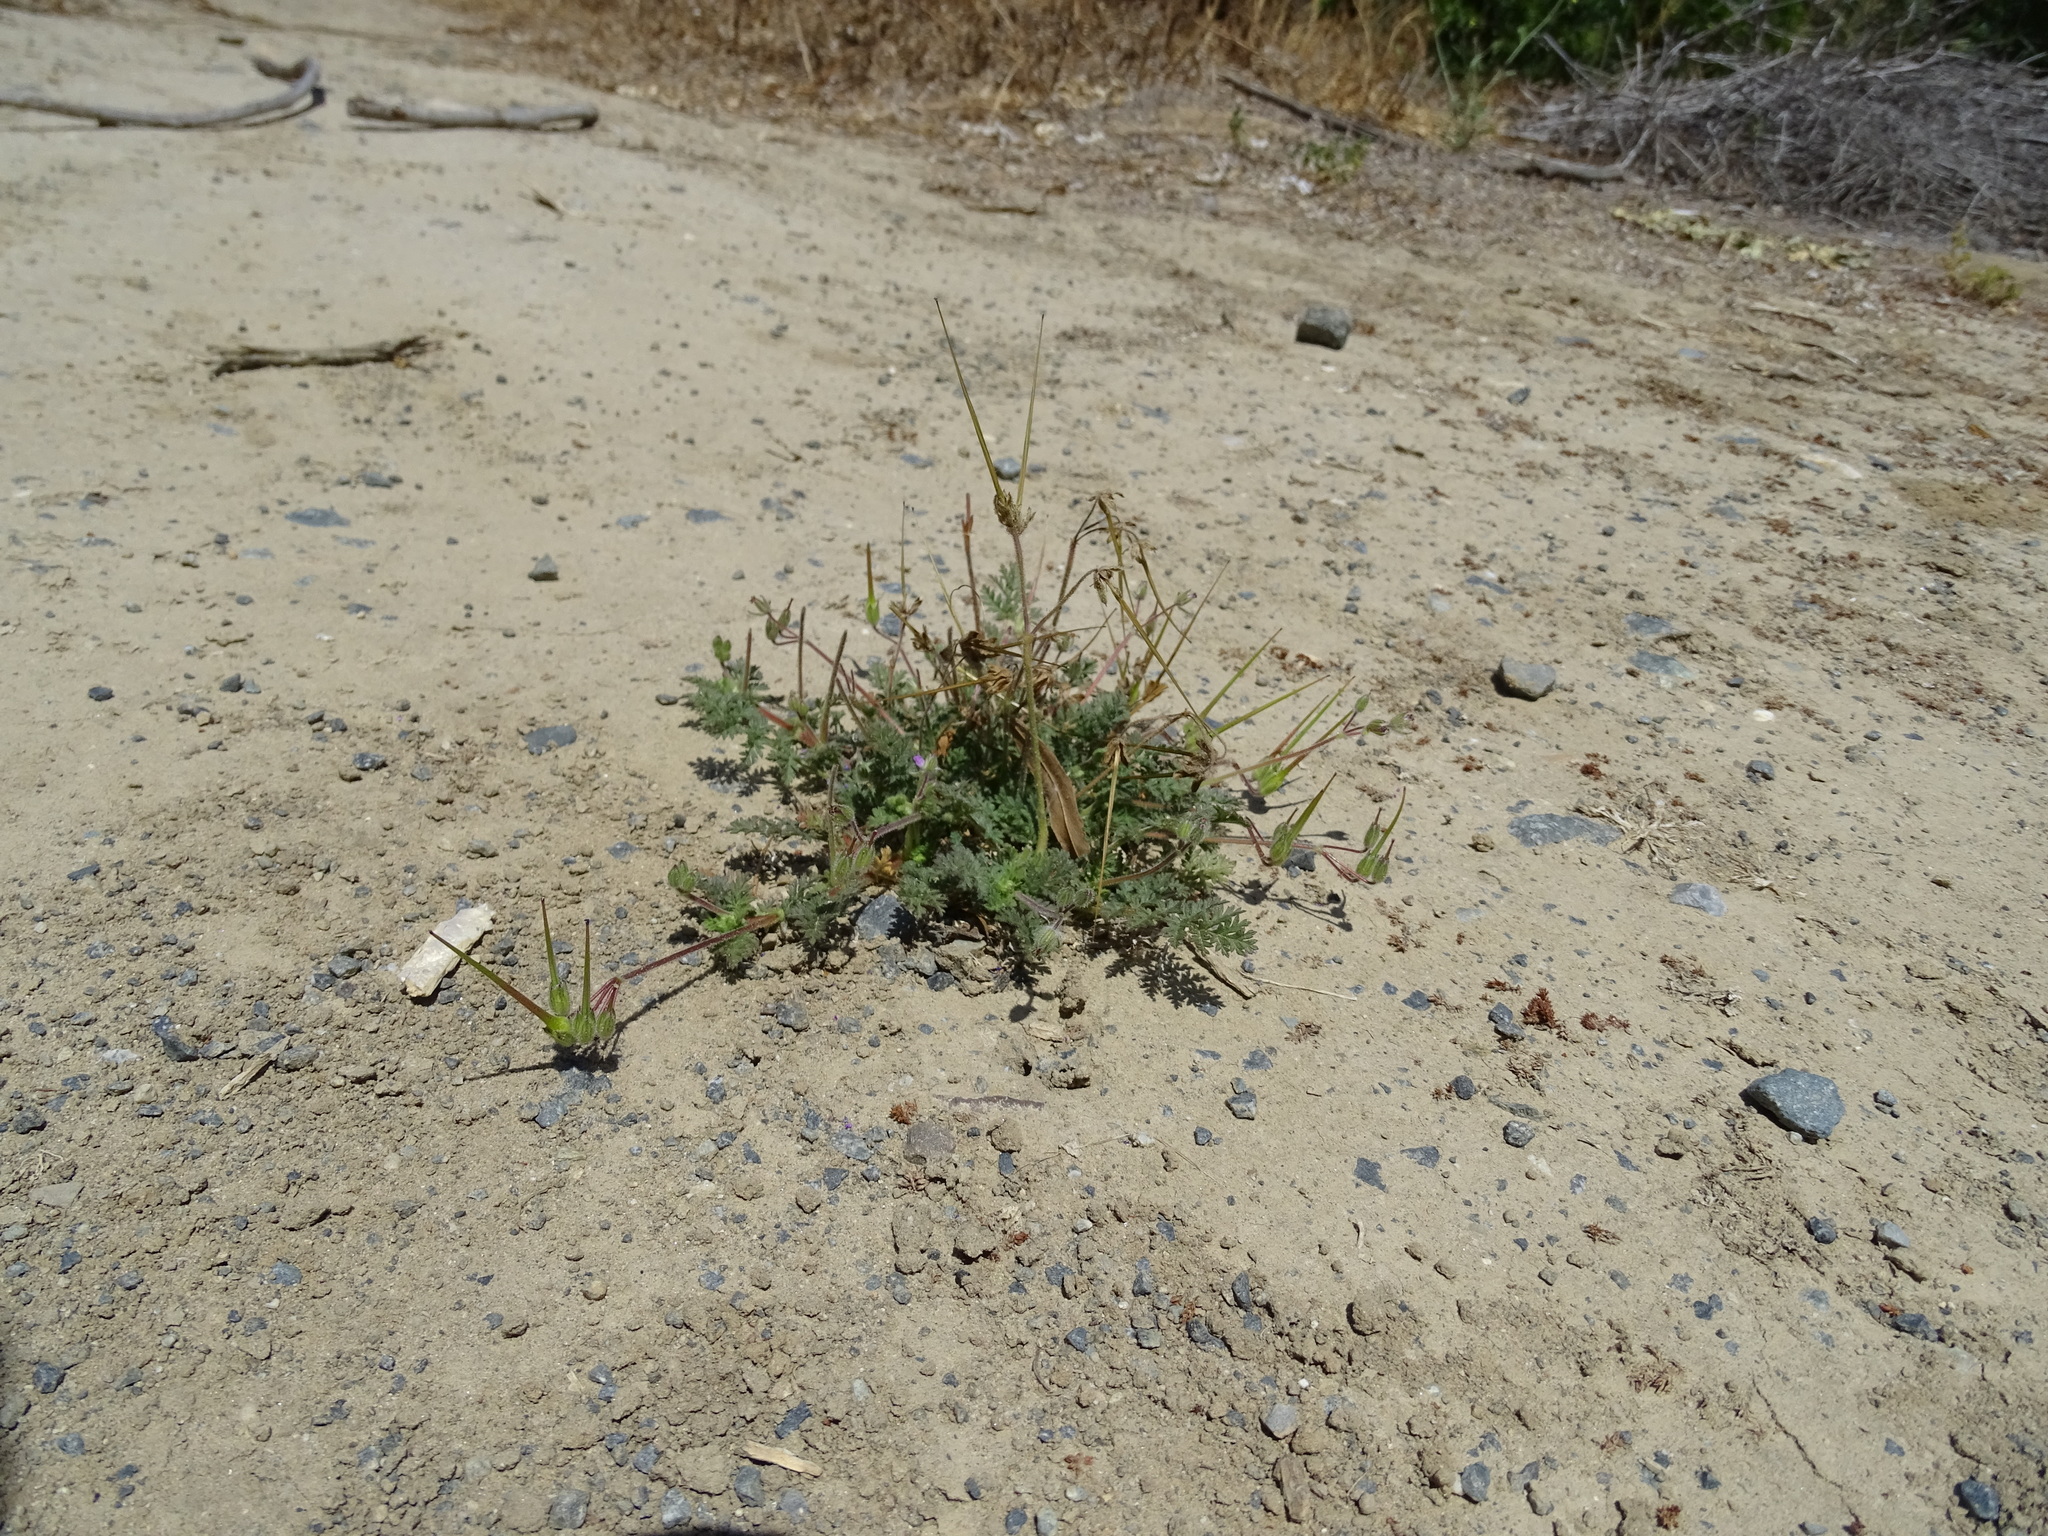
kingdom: Plantae
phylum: Tracheophyta
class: Magnoliopsida
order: Geraniales
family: Geraniaceae
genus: Erodium
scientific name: Erodium cicutarium
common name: Common stork's-bill
